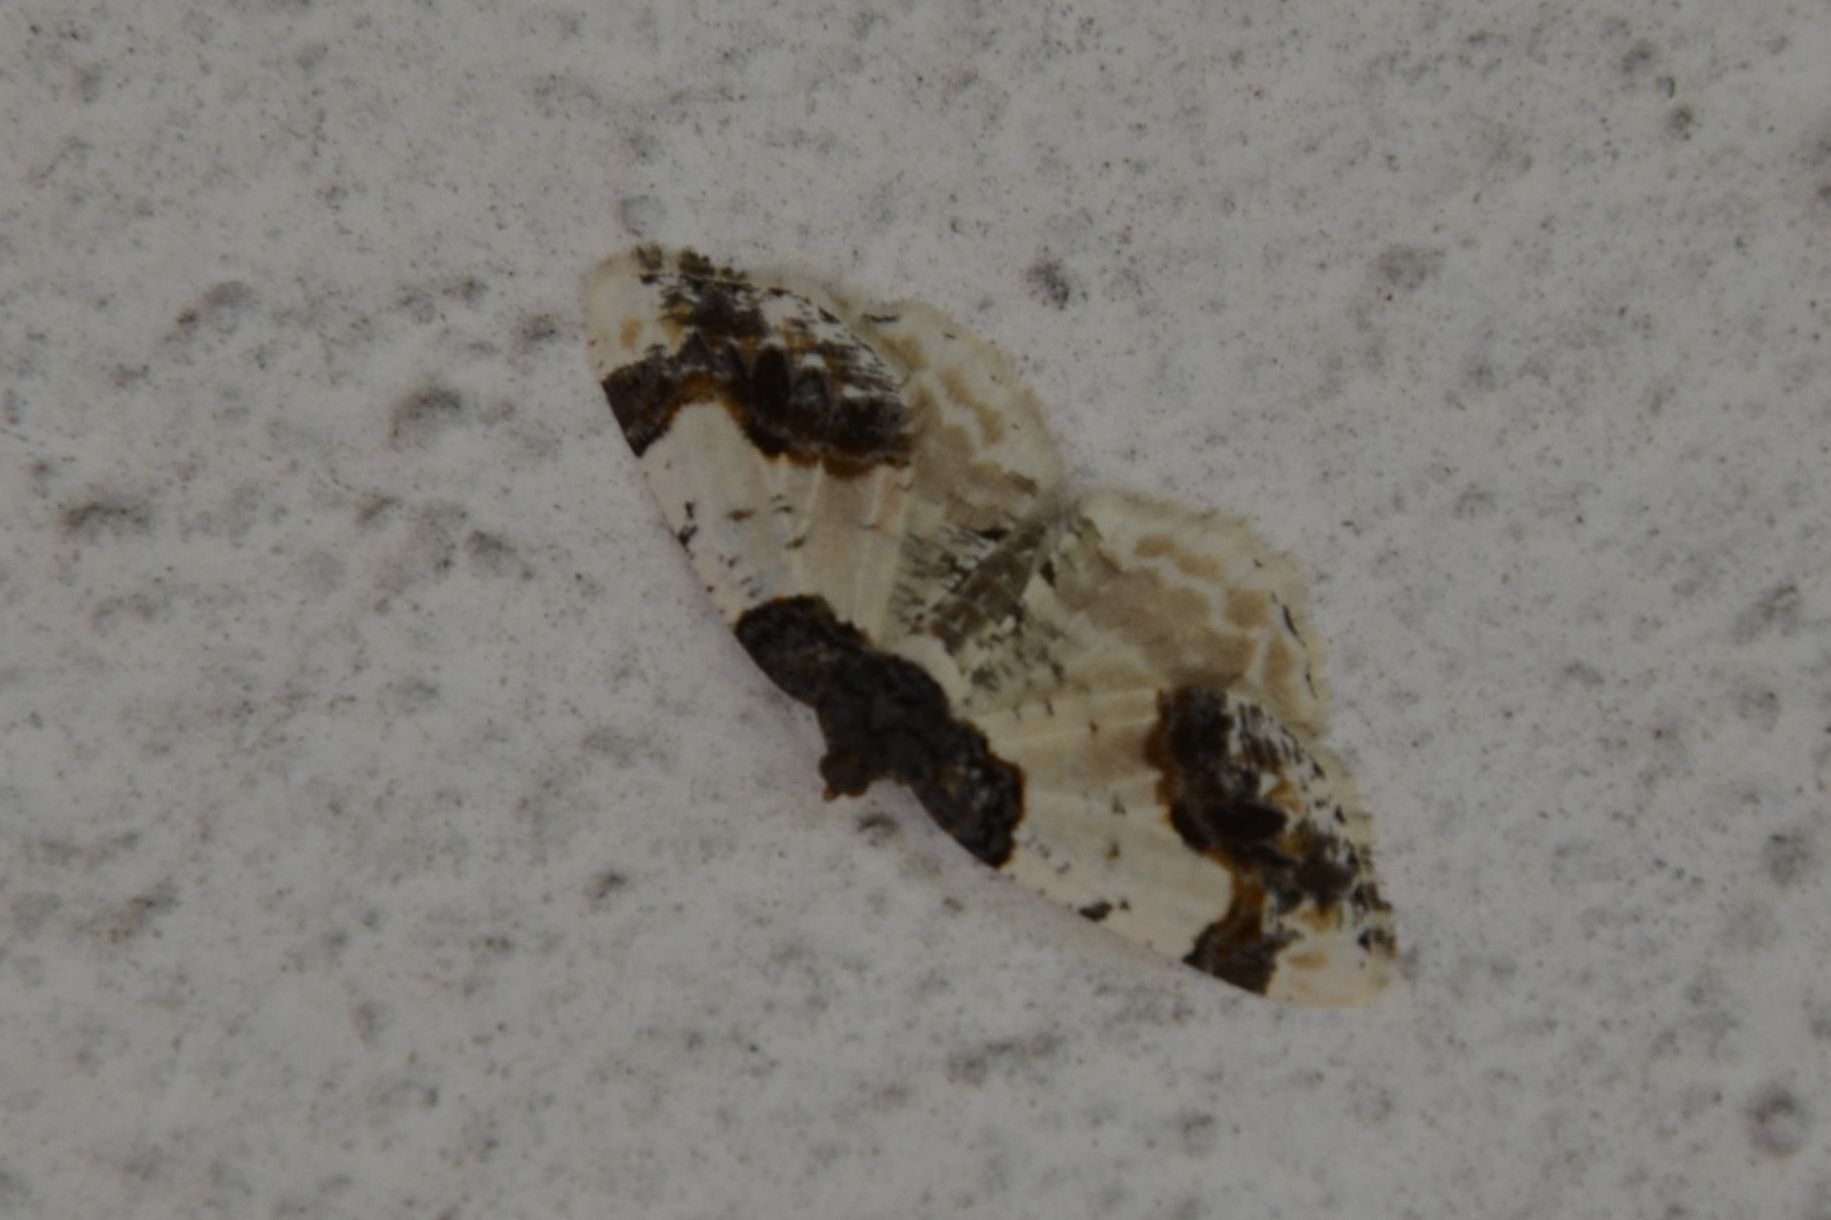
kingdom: Animalia
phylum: Arthropoda
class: Insecta
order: Lepidoptera
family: Geometridae
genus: Ligdia
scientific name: Ligdia adustata
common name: Scorched carpet
